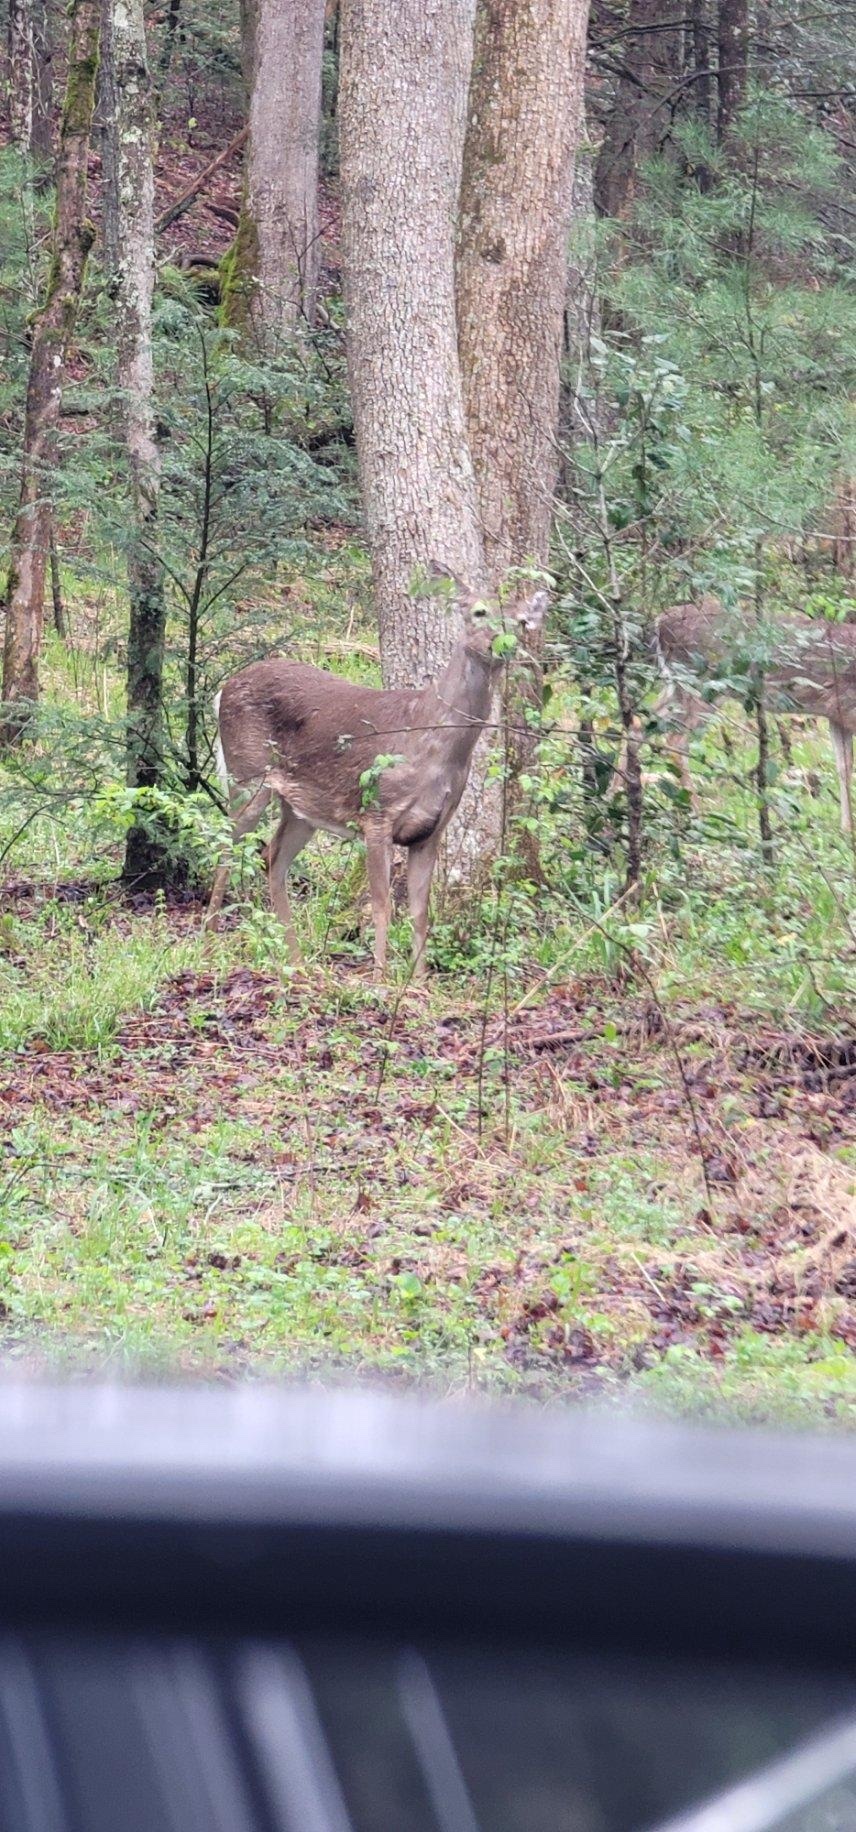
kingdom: Animalia
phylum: Chordata
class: Mammalia
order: Artiodactyla
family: Cervidae
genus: Odocoileus
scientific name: Odocoileus virginianus
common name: White-tailed deer
